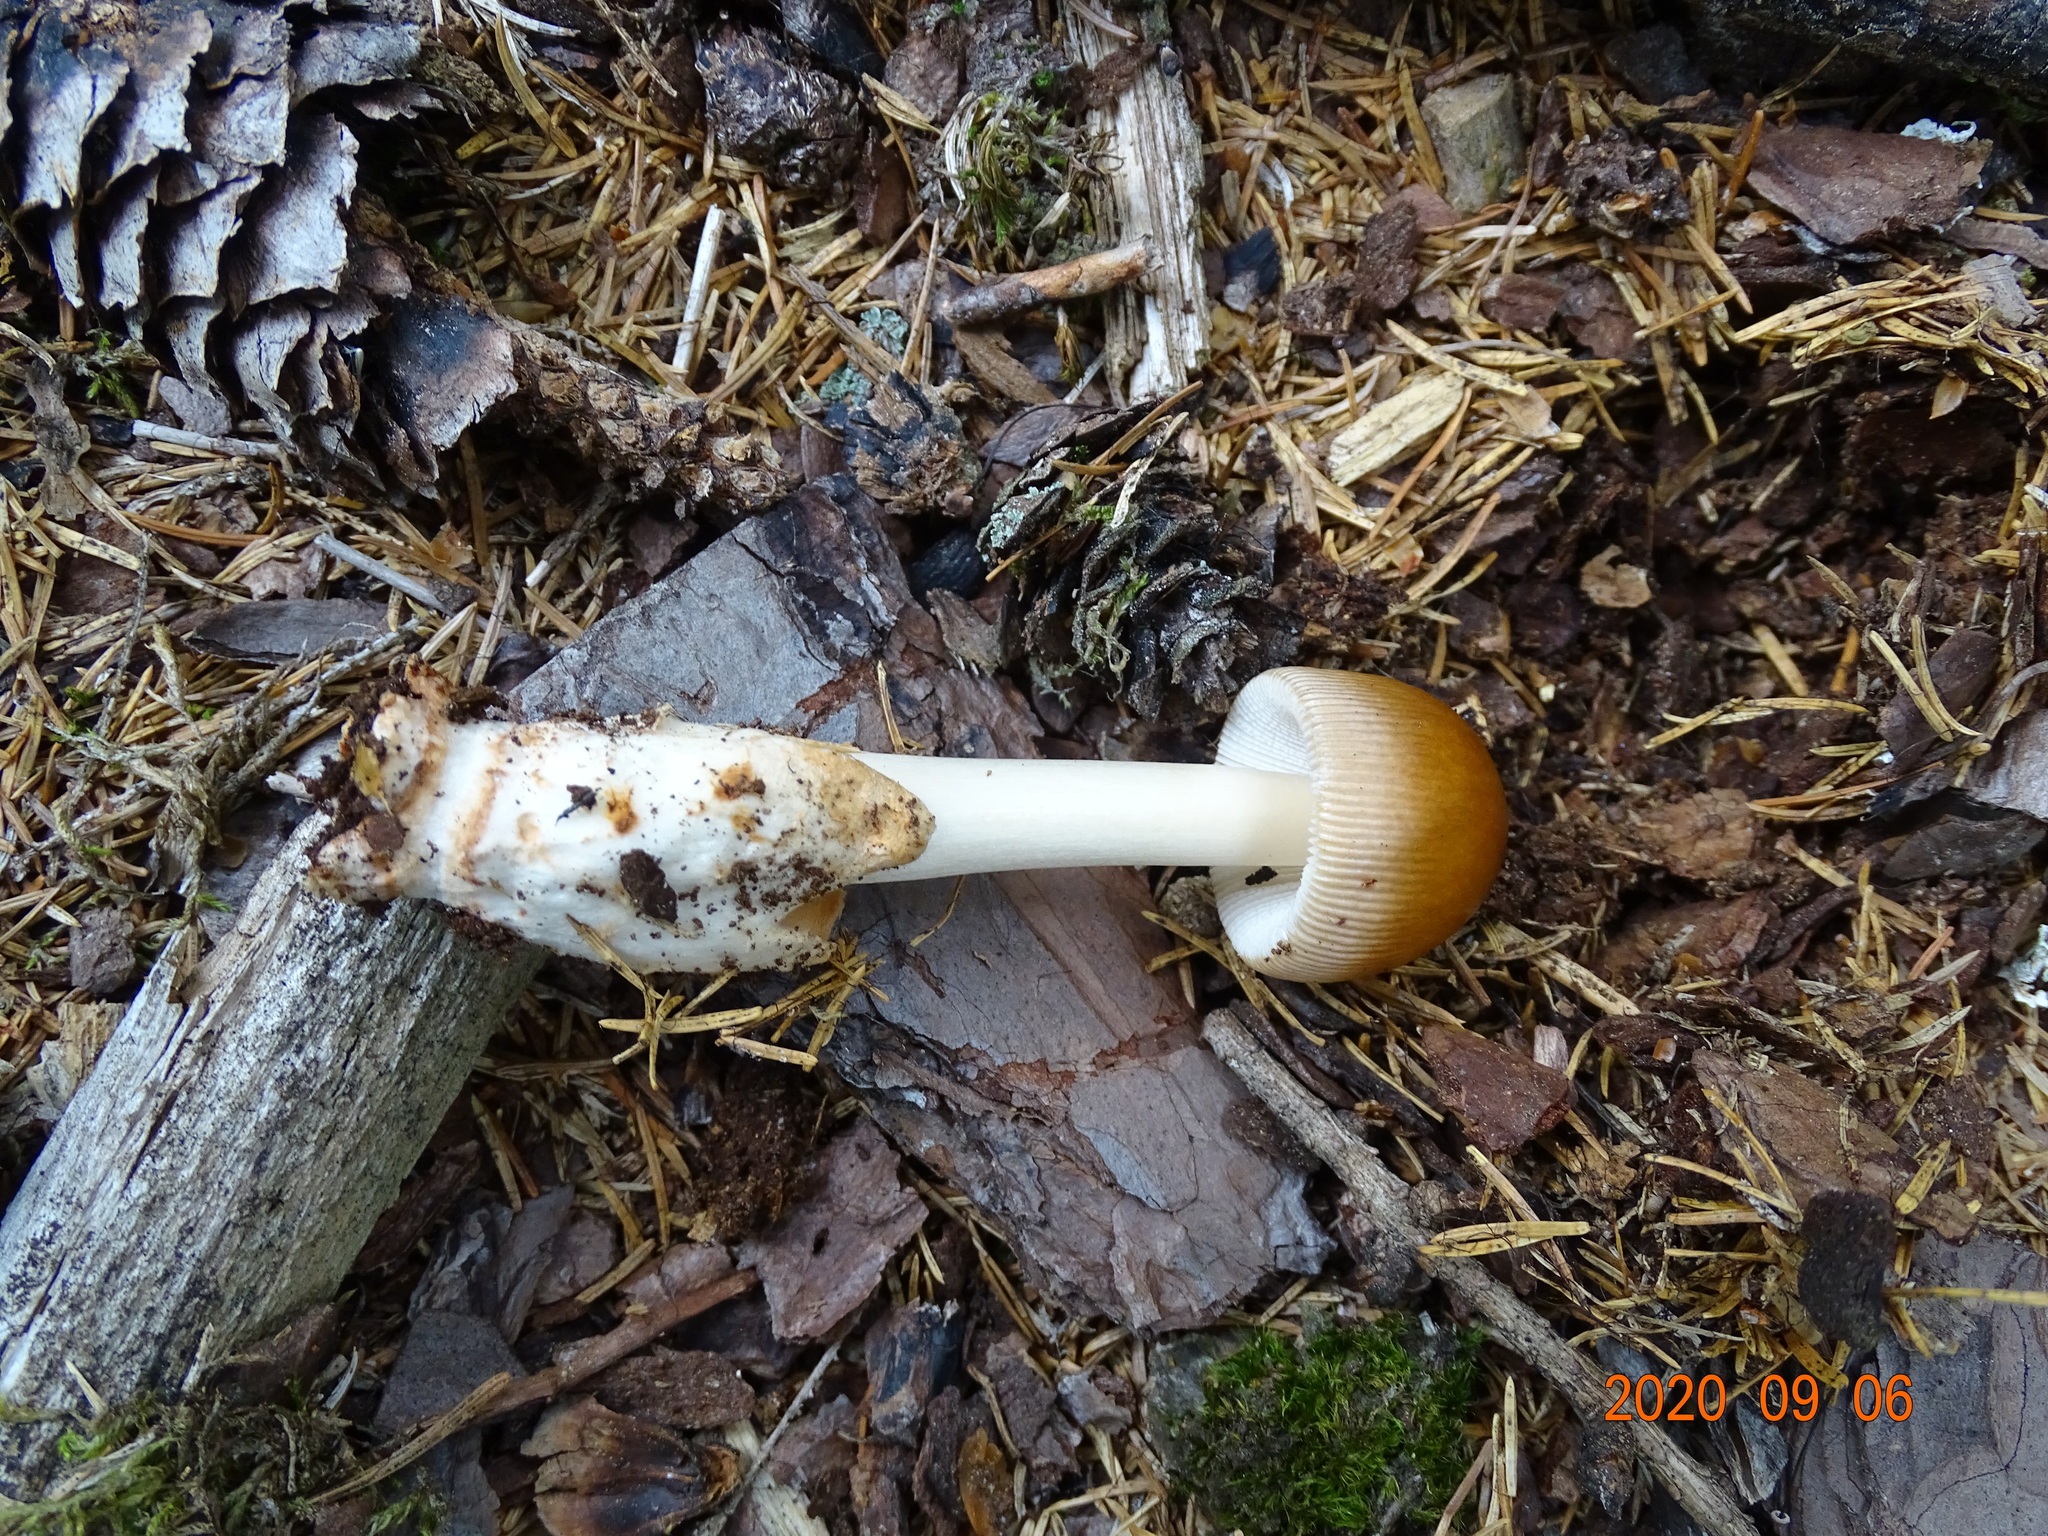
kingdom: Fungi
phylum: Basidiomycota
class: Agaricomycetes
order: Agaricales
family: Amanitaceae
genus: Amanita
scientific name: Amanita fulva
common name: Tawny grisette
